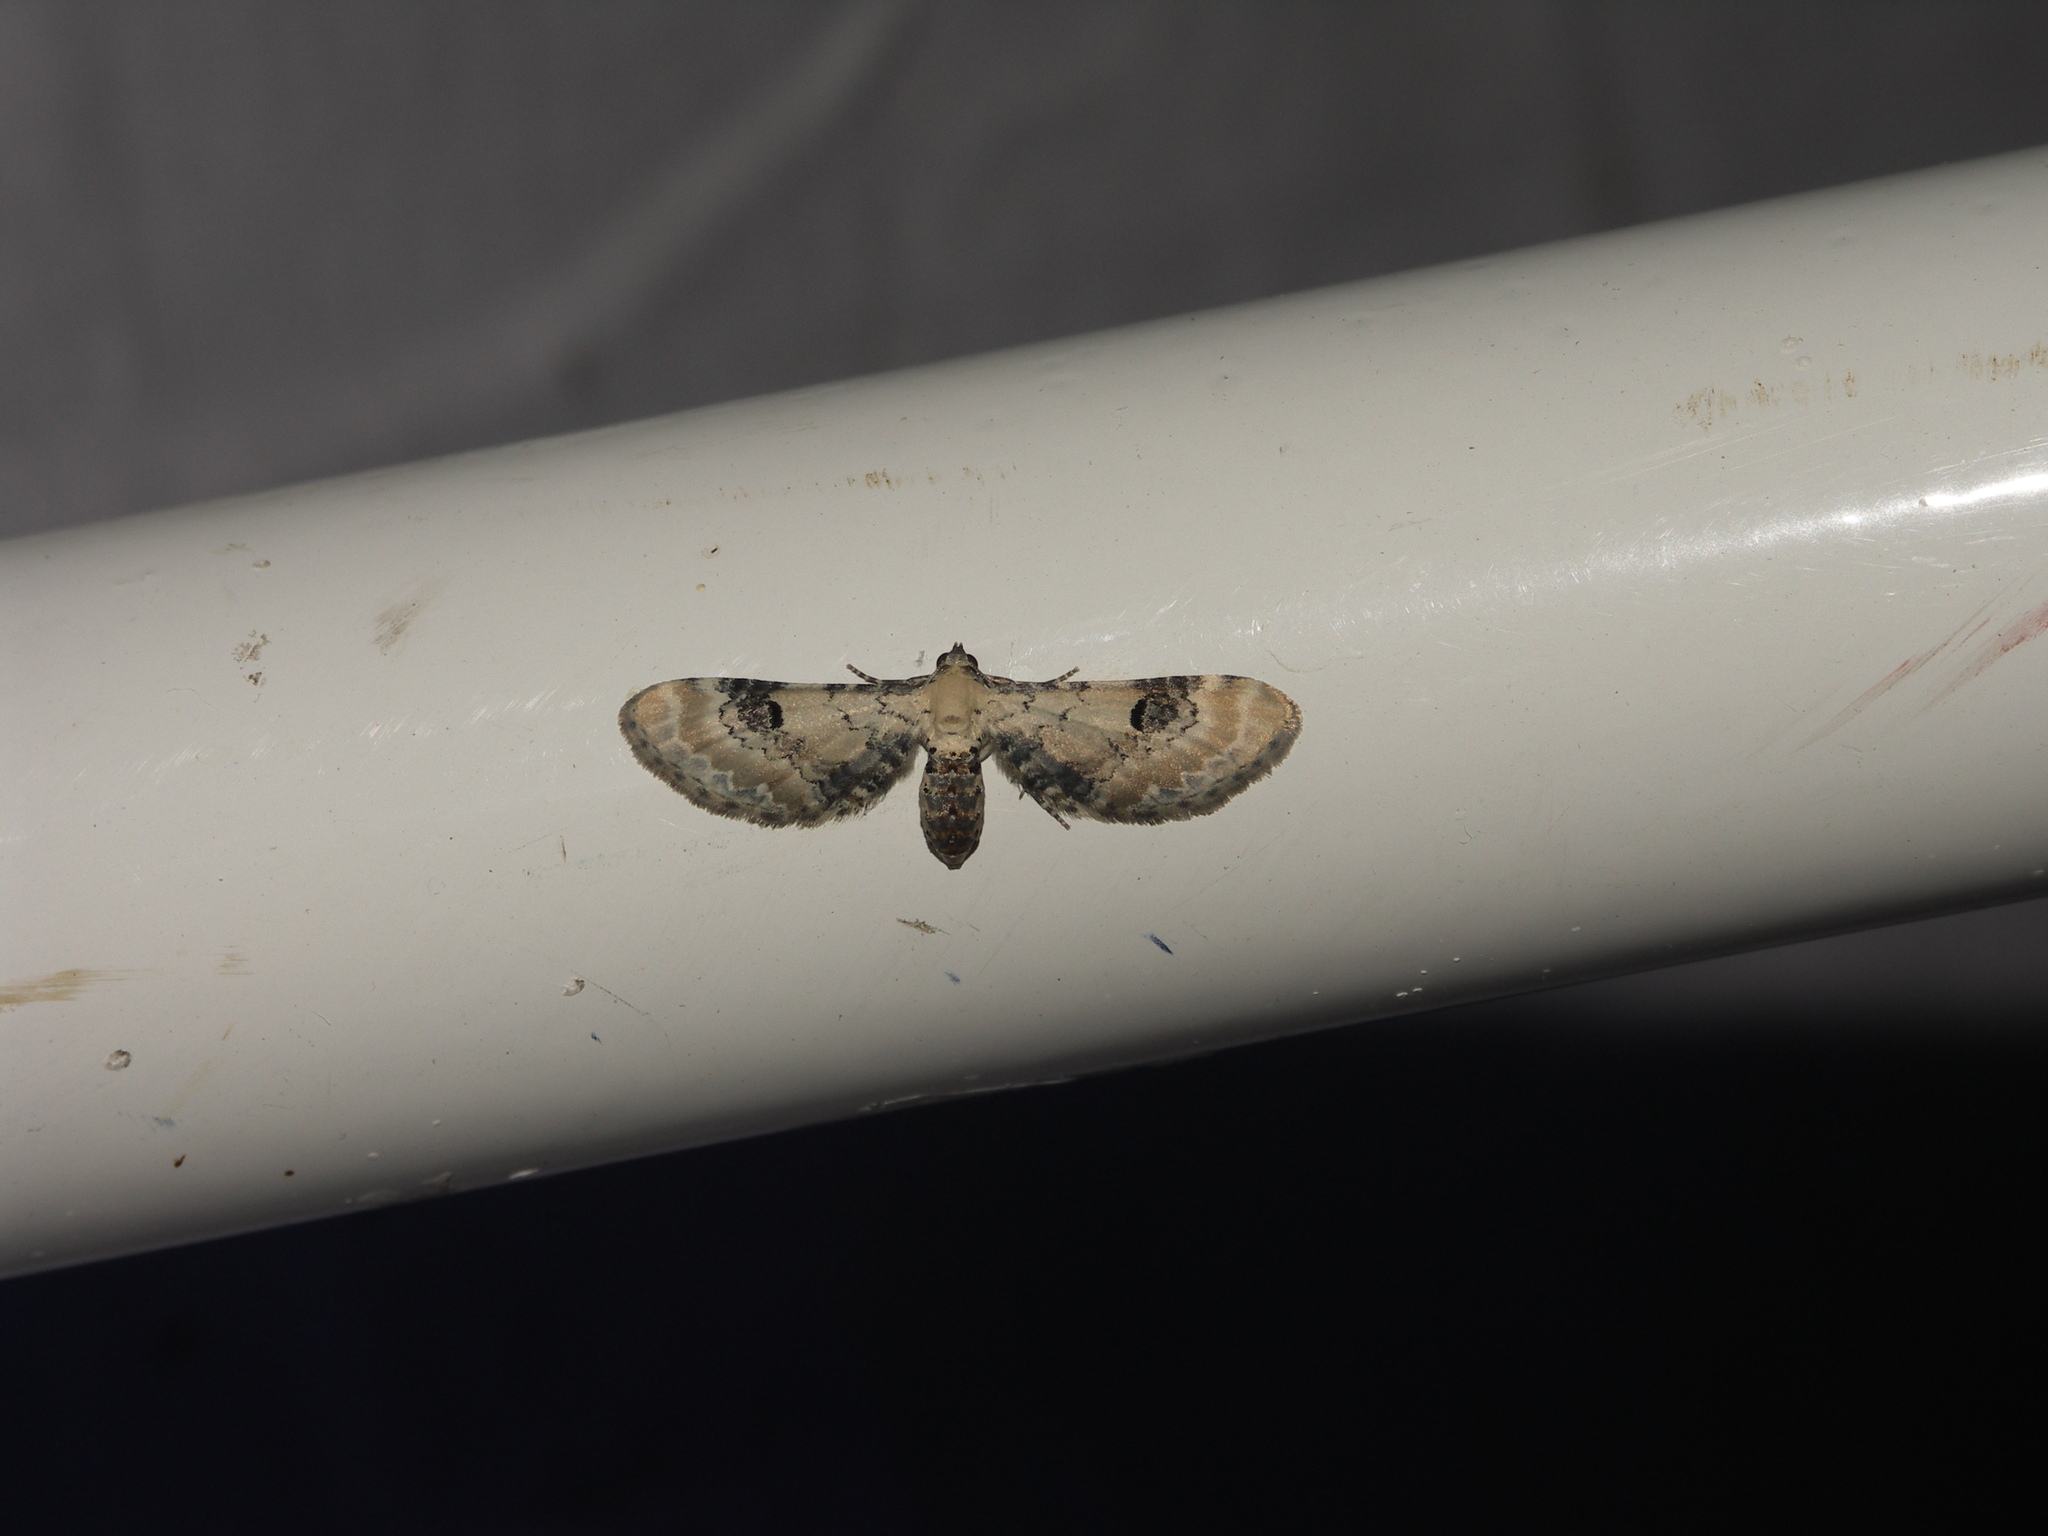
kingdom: Animalia
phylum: Arthropoda
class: Insecta
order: Lepidoptera
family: Geometridae
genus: Eupithecia
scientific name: Eupithecia centaureata
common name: Lime-speck pug
